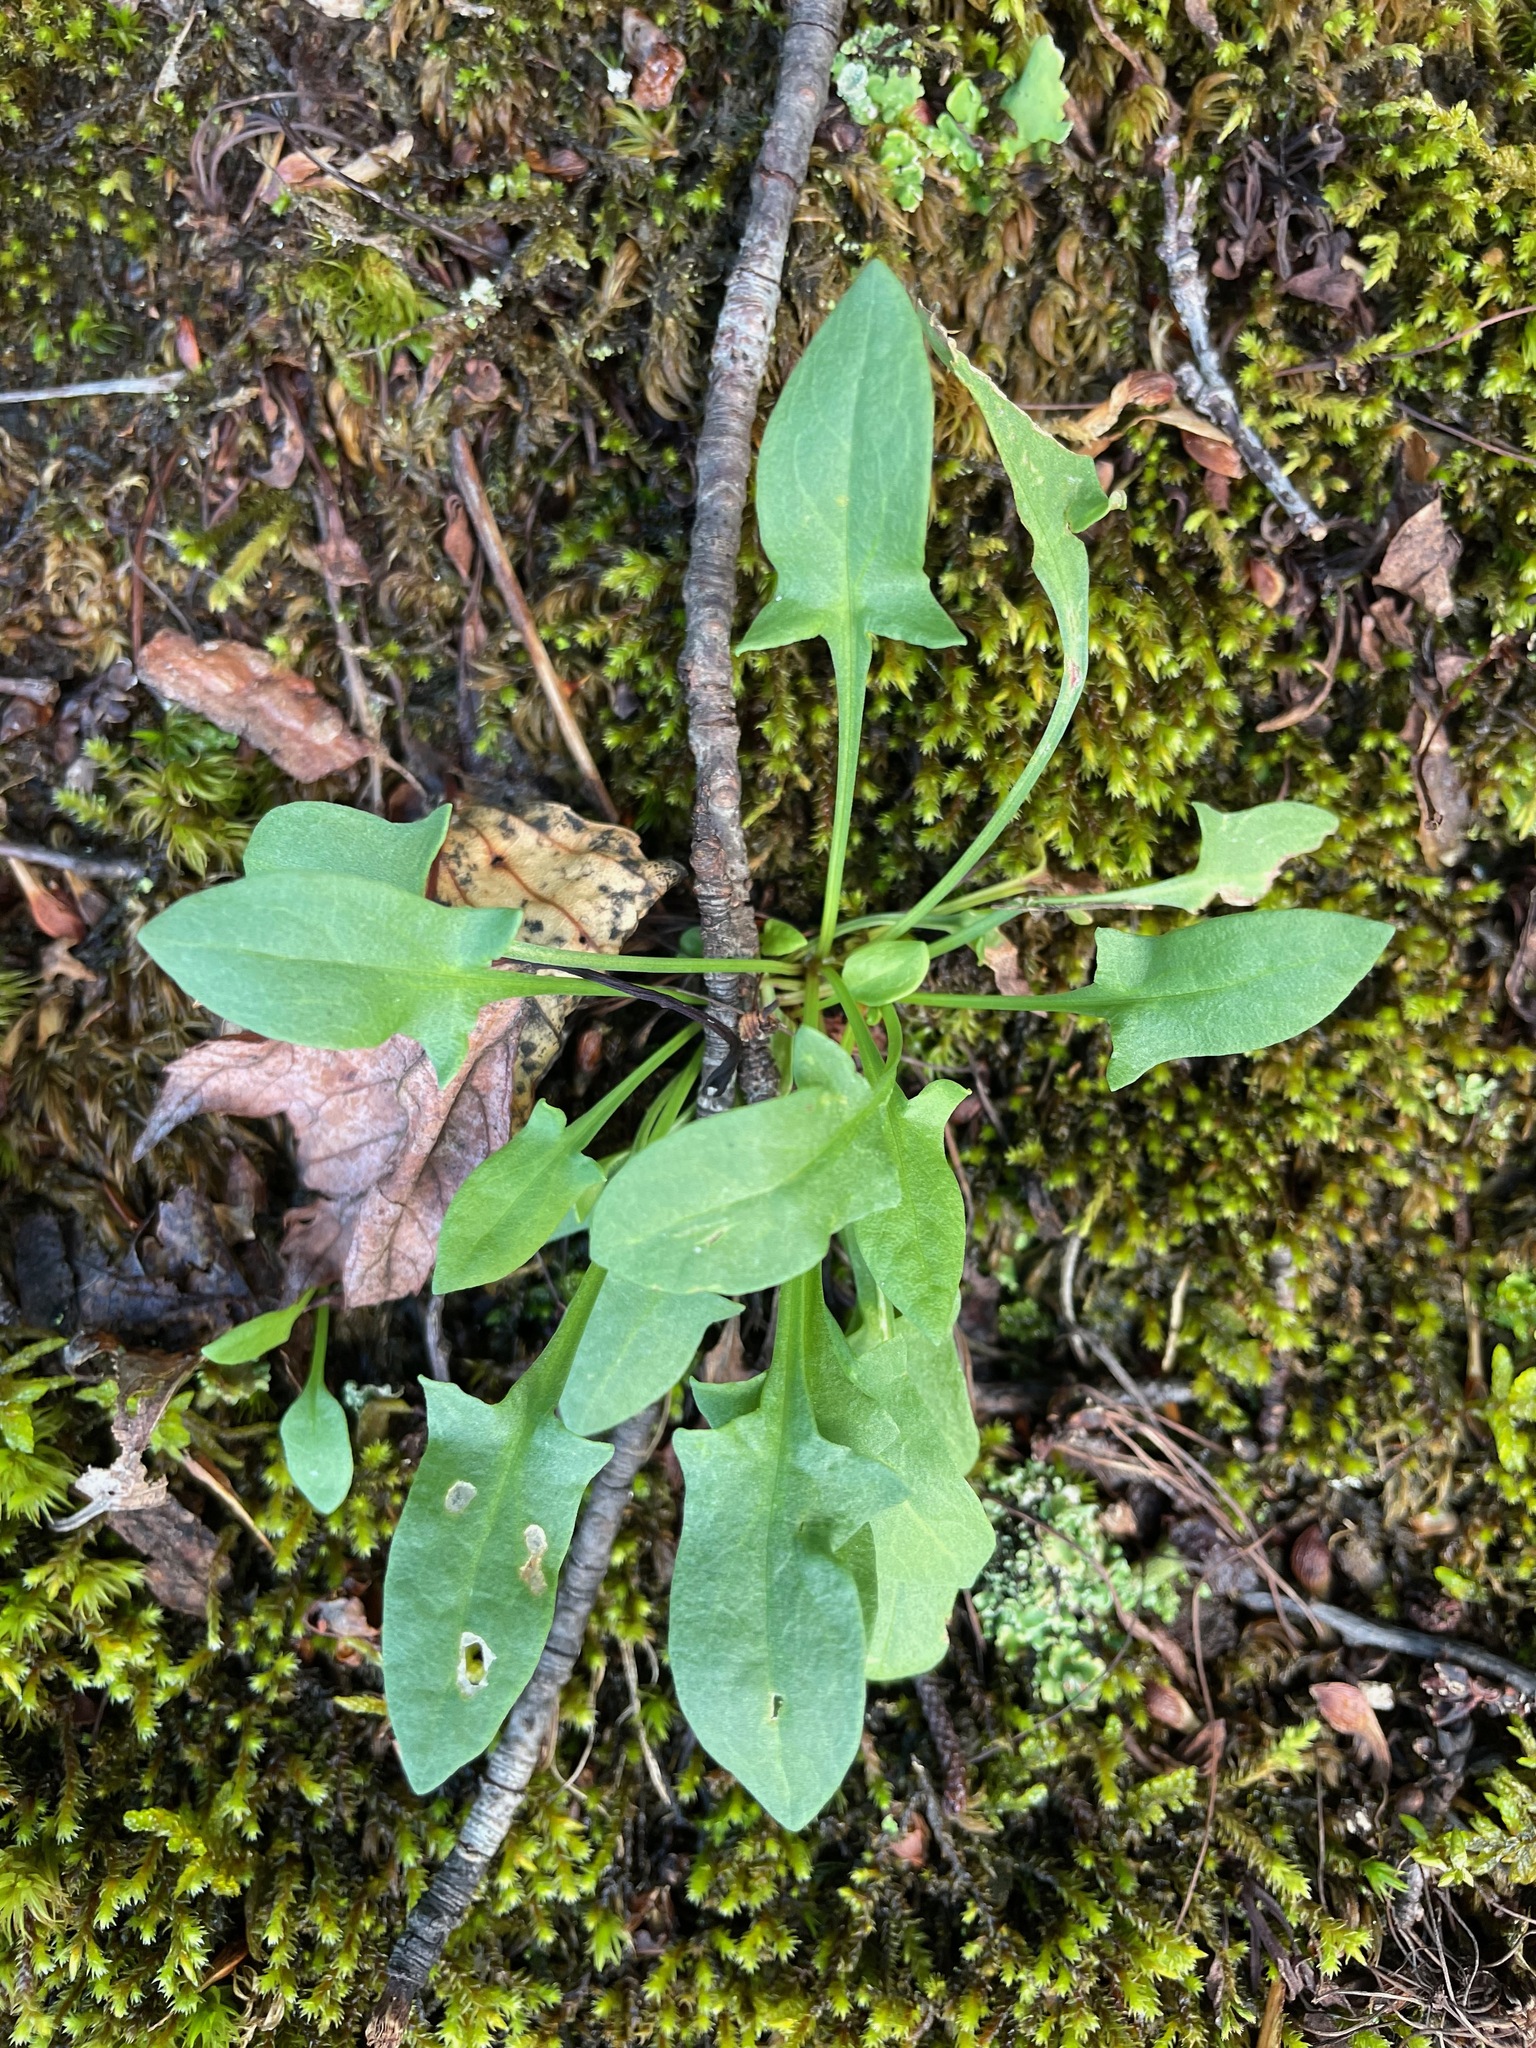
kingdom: Plantae
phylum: Tracheophyta
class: Magnoliopsida
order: Caryophyllales
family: Polygonaceae
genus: Rumex
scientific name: Rumex acetosella
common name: Common sheep sorrel
